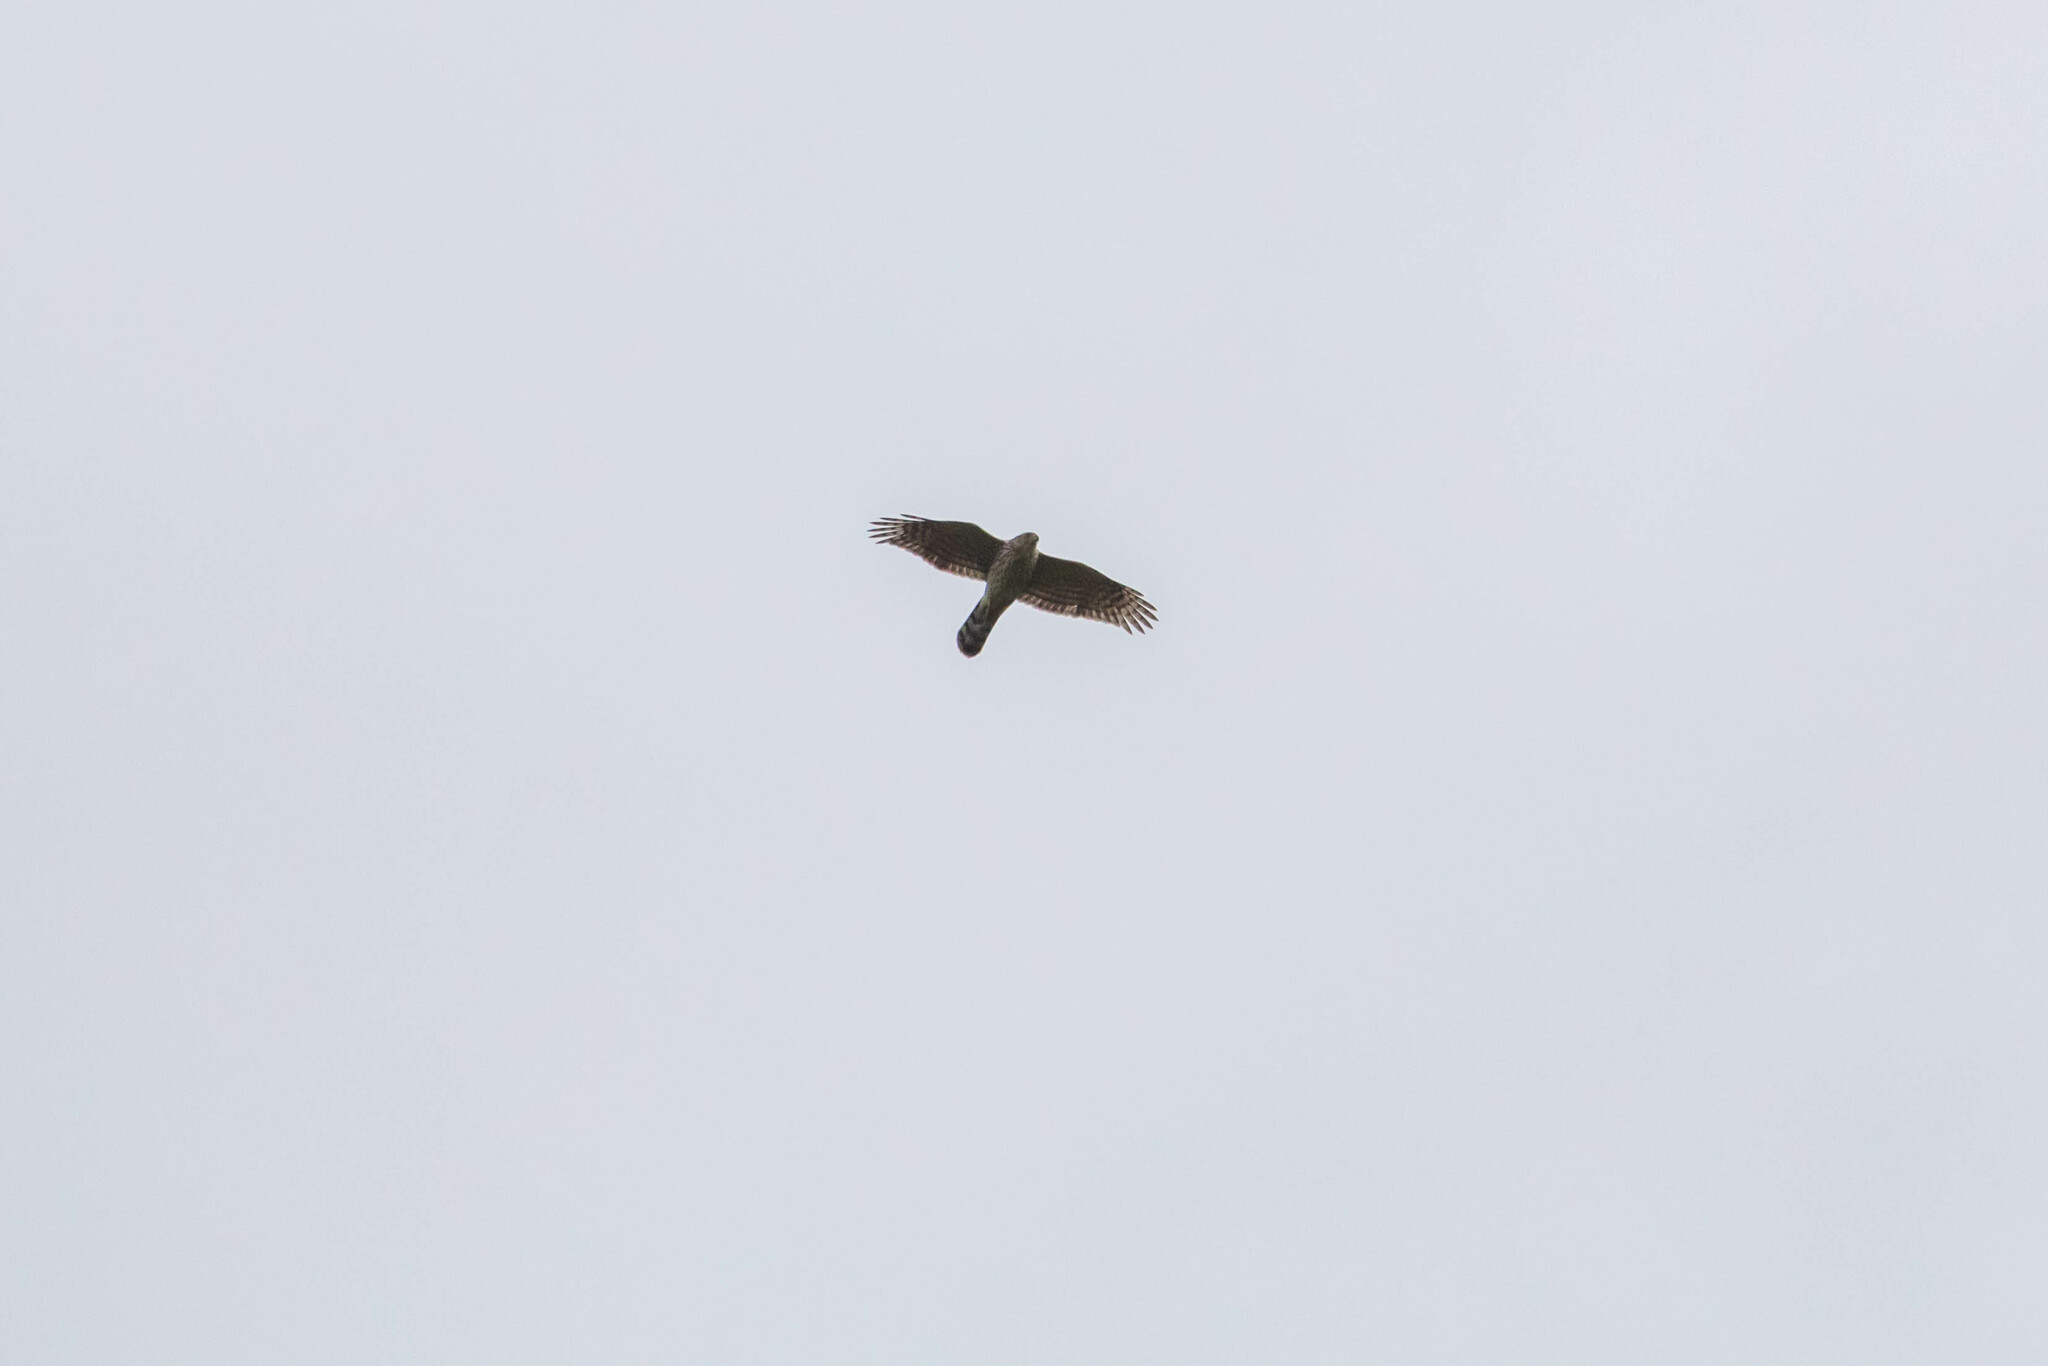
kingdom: Animalia
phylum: Chordata
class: Aves
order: Accipitriformes
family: Accipitridae
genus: Accipiter
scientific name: Accipiter cooperii
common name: Cooper's hawk
